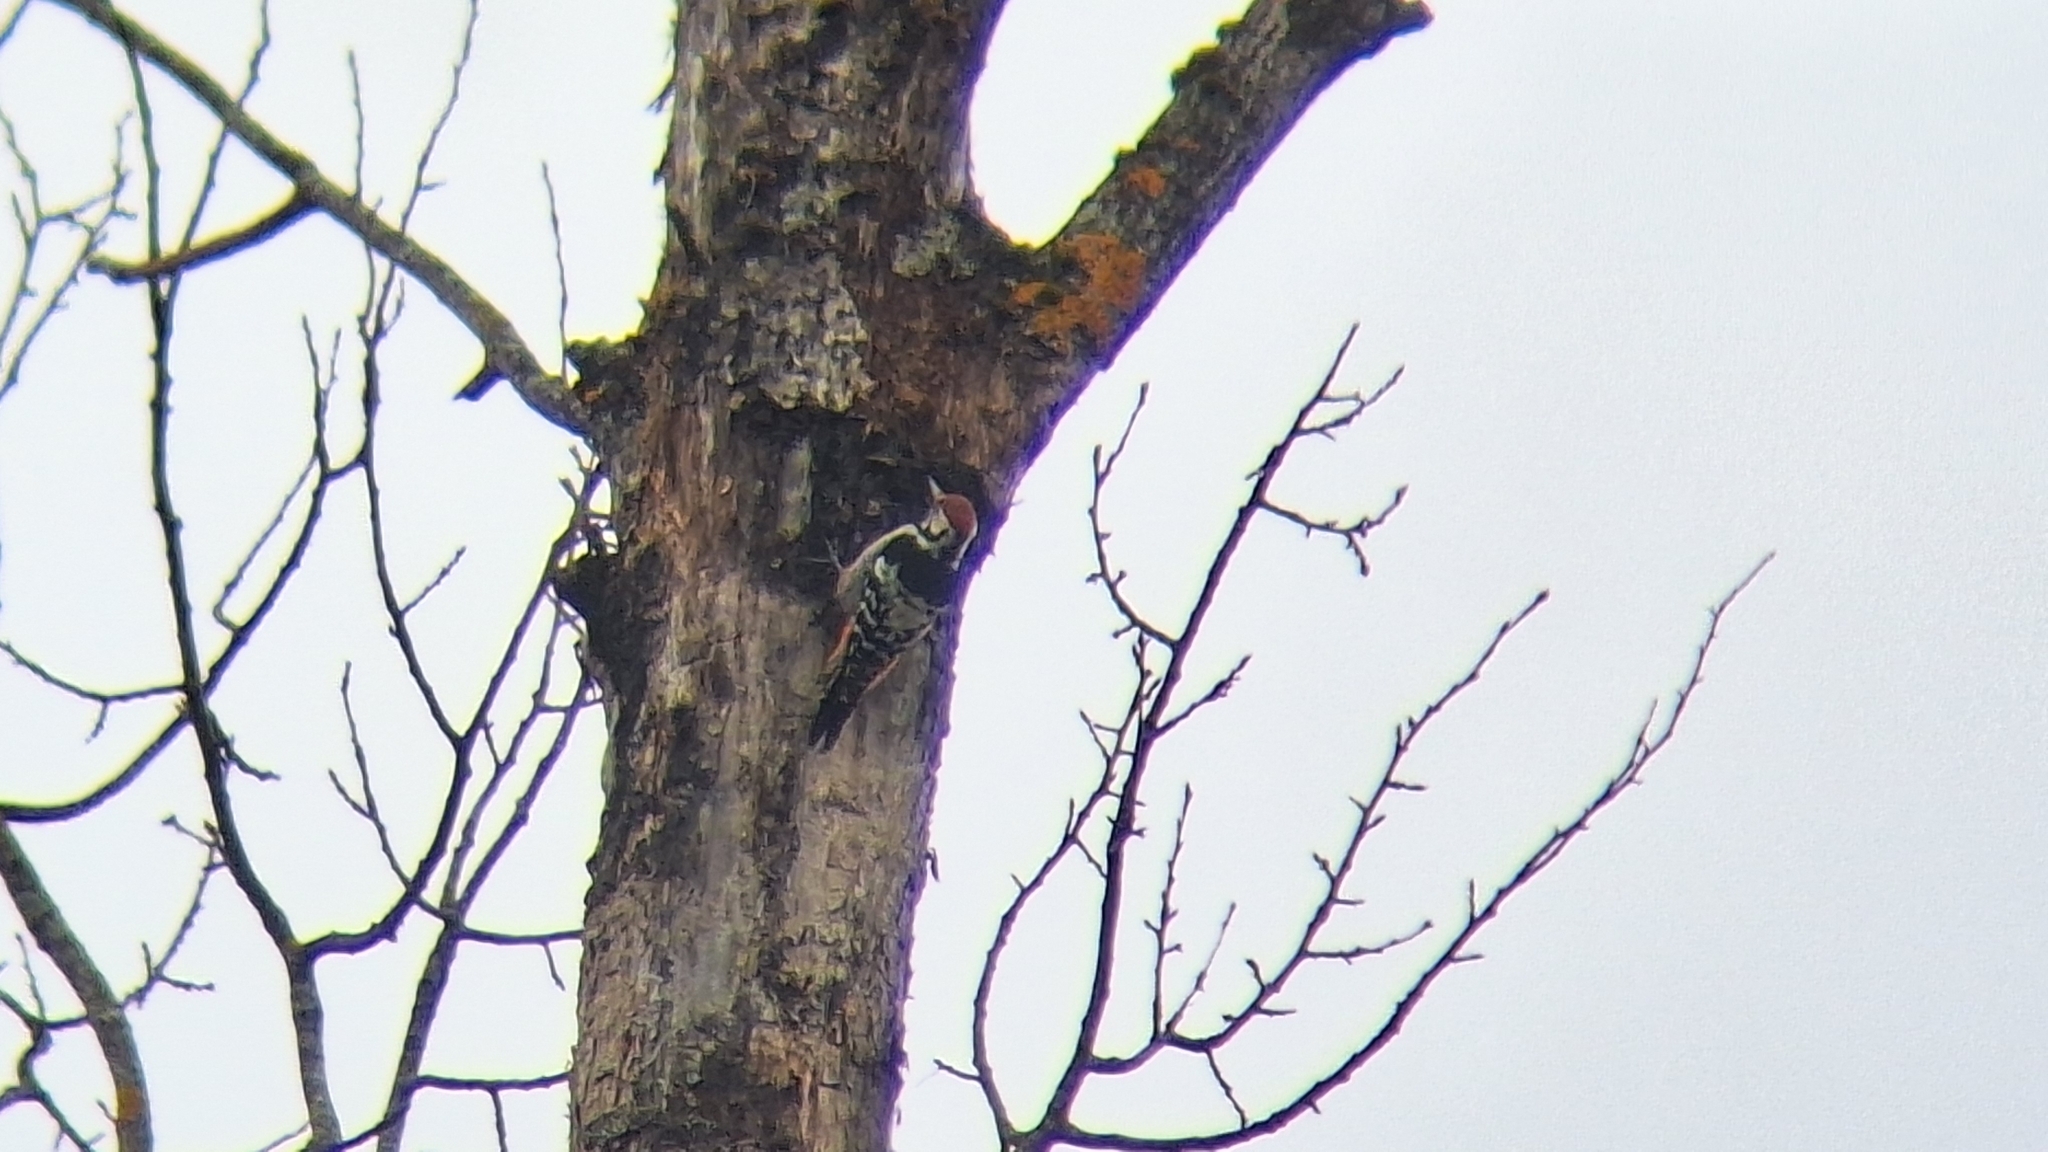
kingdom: Animalia
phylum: Chordata
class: Aves
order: Piciformes
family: Picidae
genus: Dendrocopos
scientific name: Dendrocopos leucotos
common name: White-backed woodpecker
